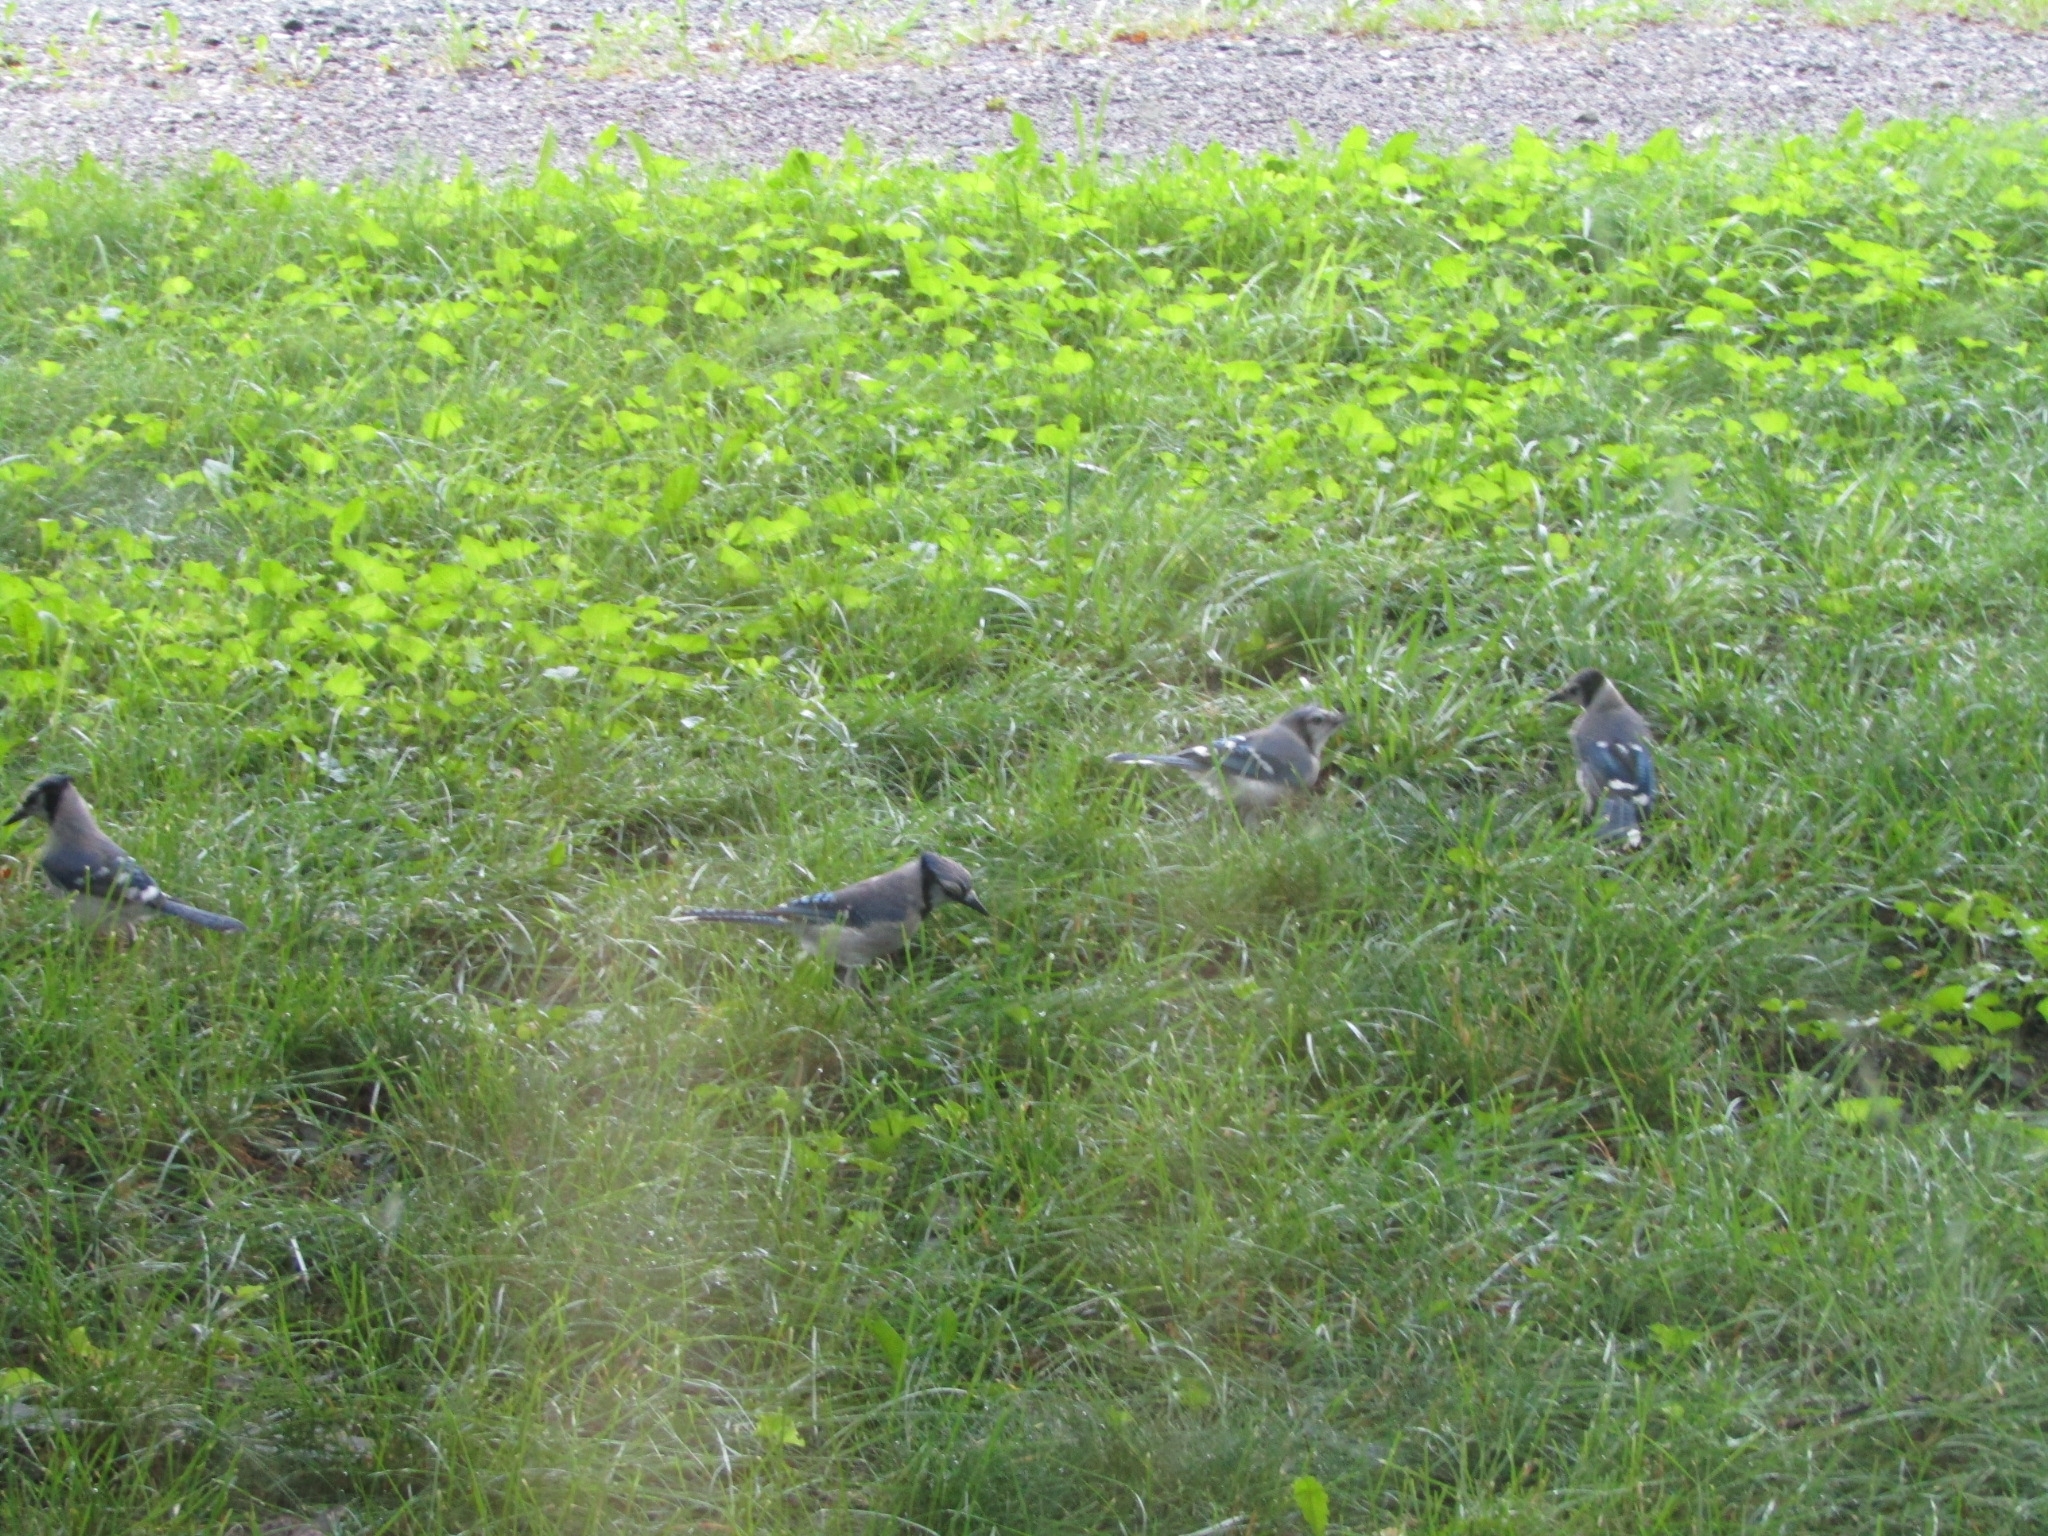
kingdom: Animalia
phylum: Chordata
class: Aves
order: Passeriformes
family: Corvidae
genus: Cyanocitta
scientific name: Cyanocitta cristata
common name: Blue jay
